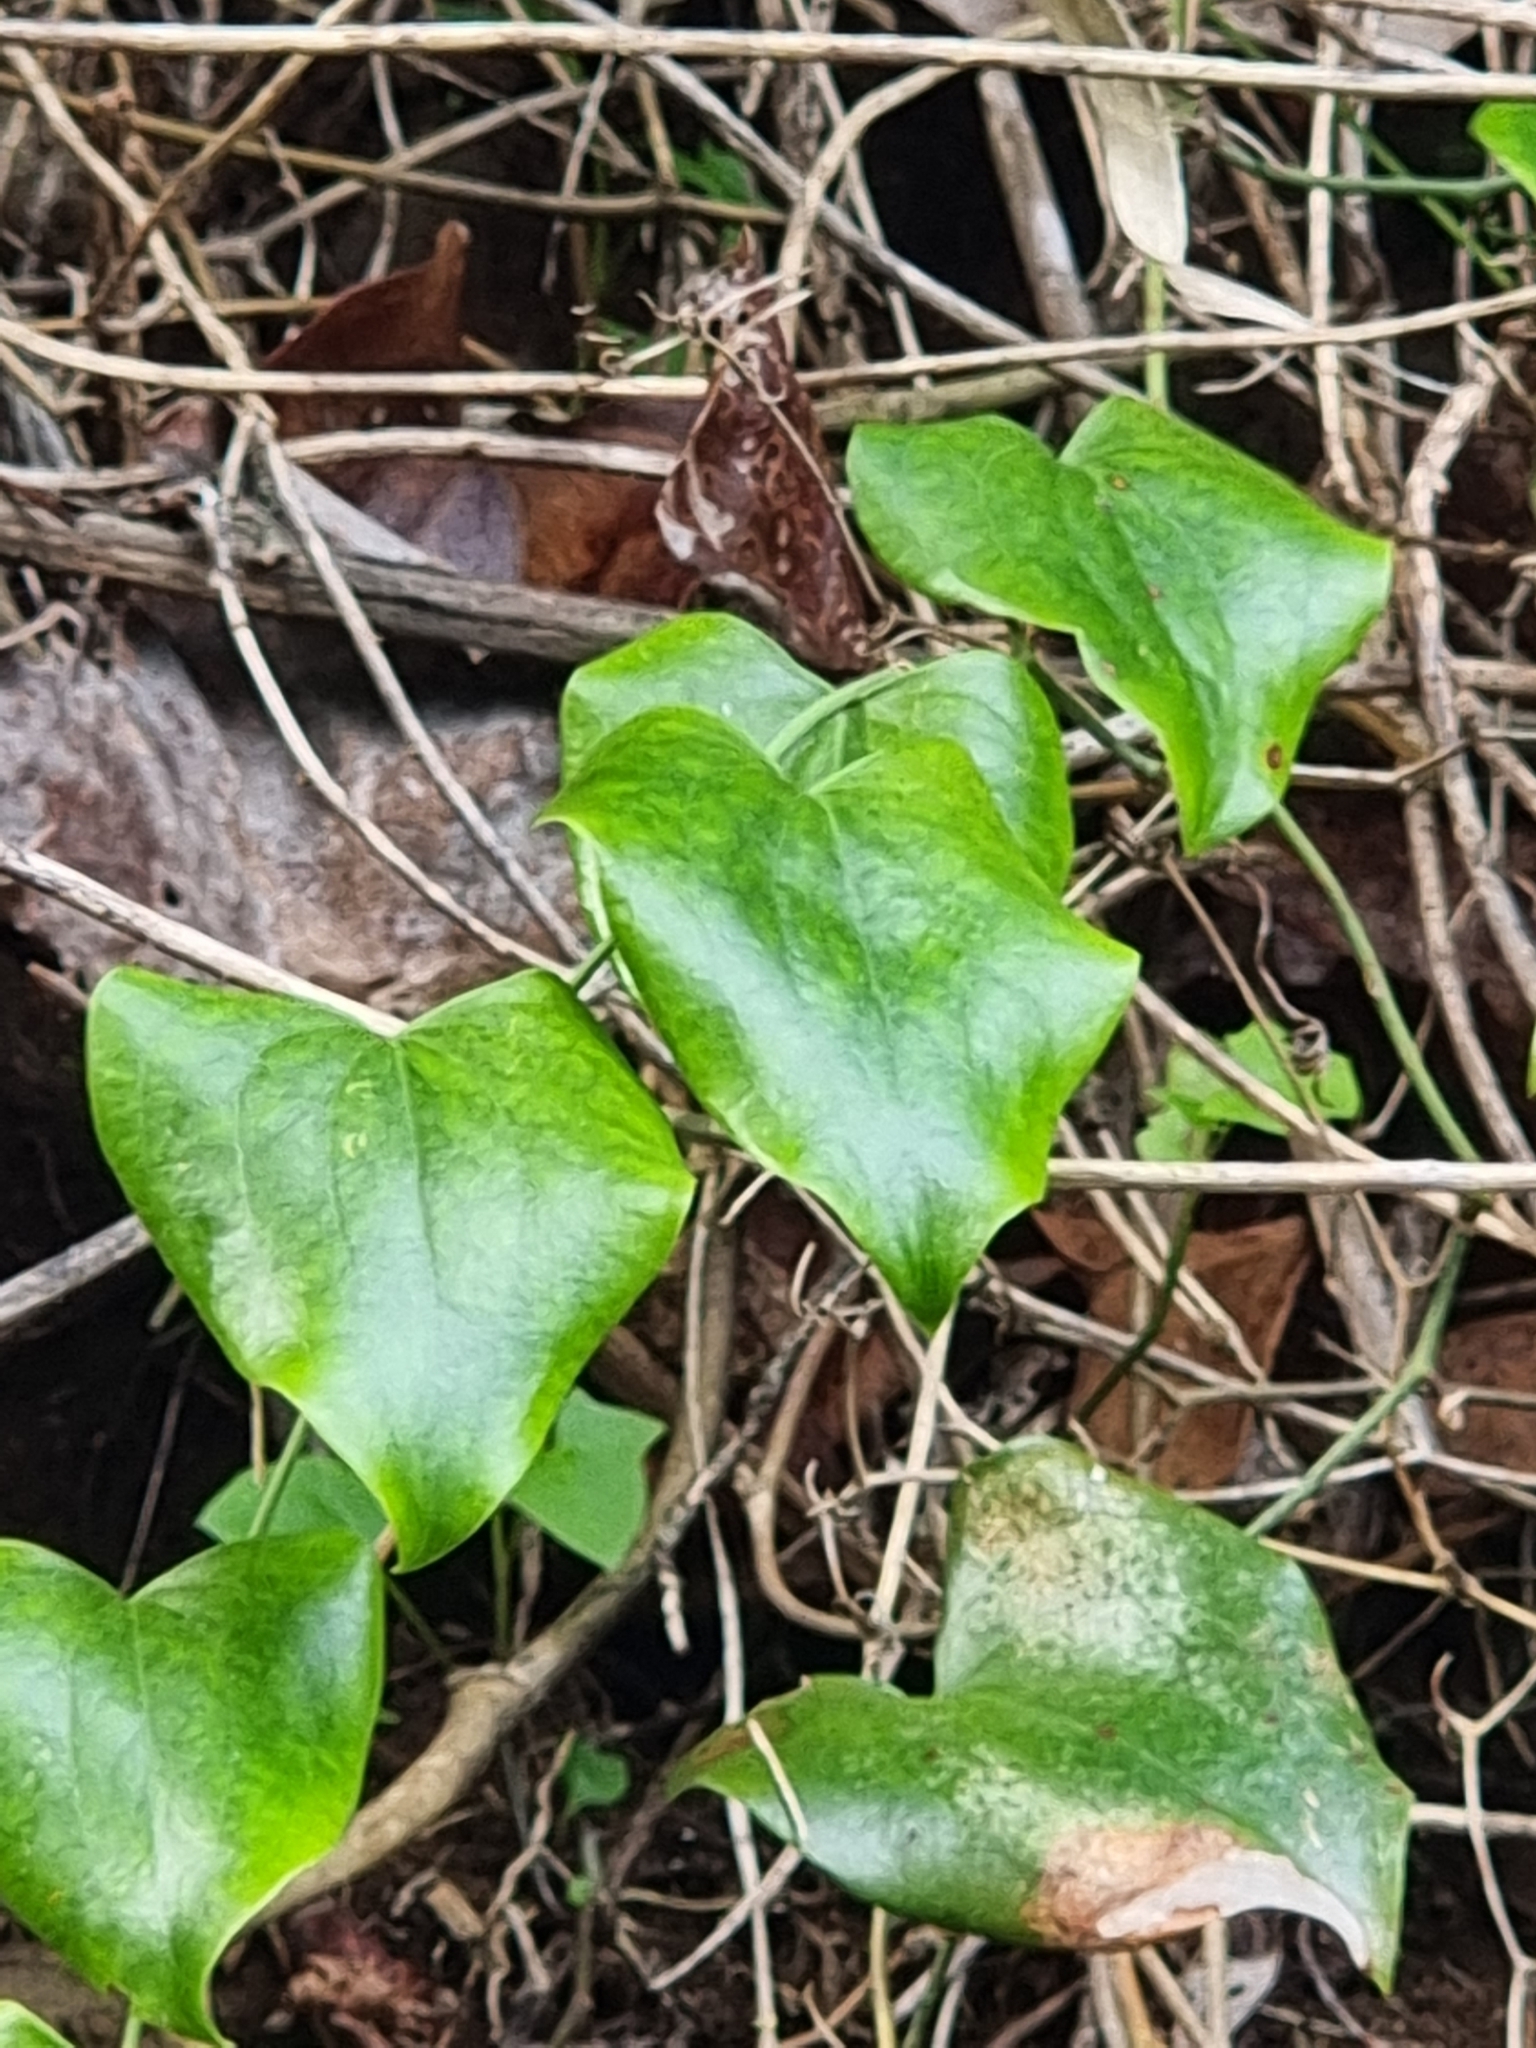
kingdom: Plantae
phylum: Tracheophyta
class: Liliopsida
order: Liliales
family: Smilacaceae
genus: Smilax
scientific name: Smilax aspera
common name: Common smilax
